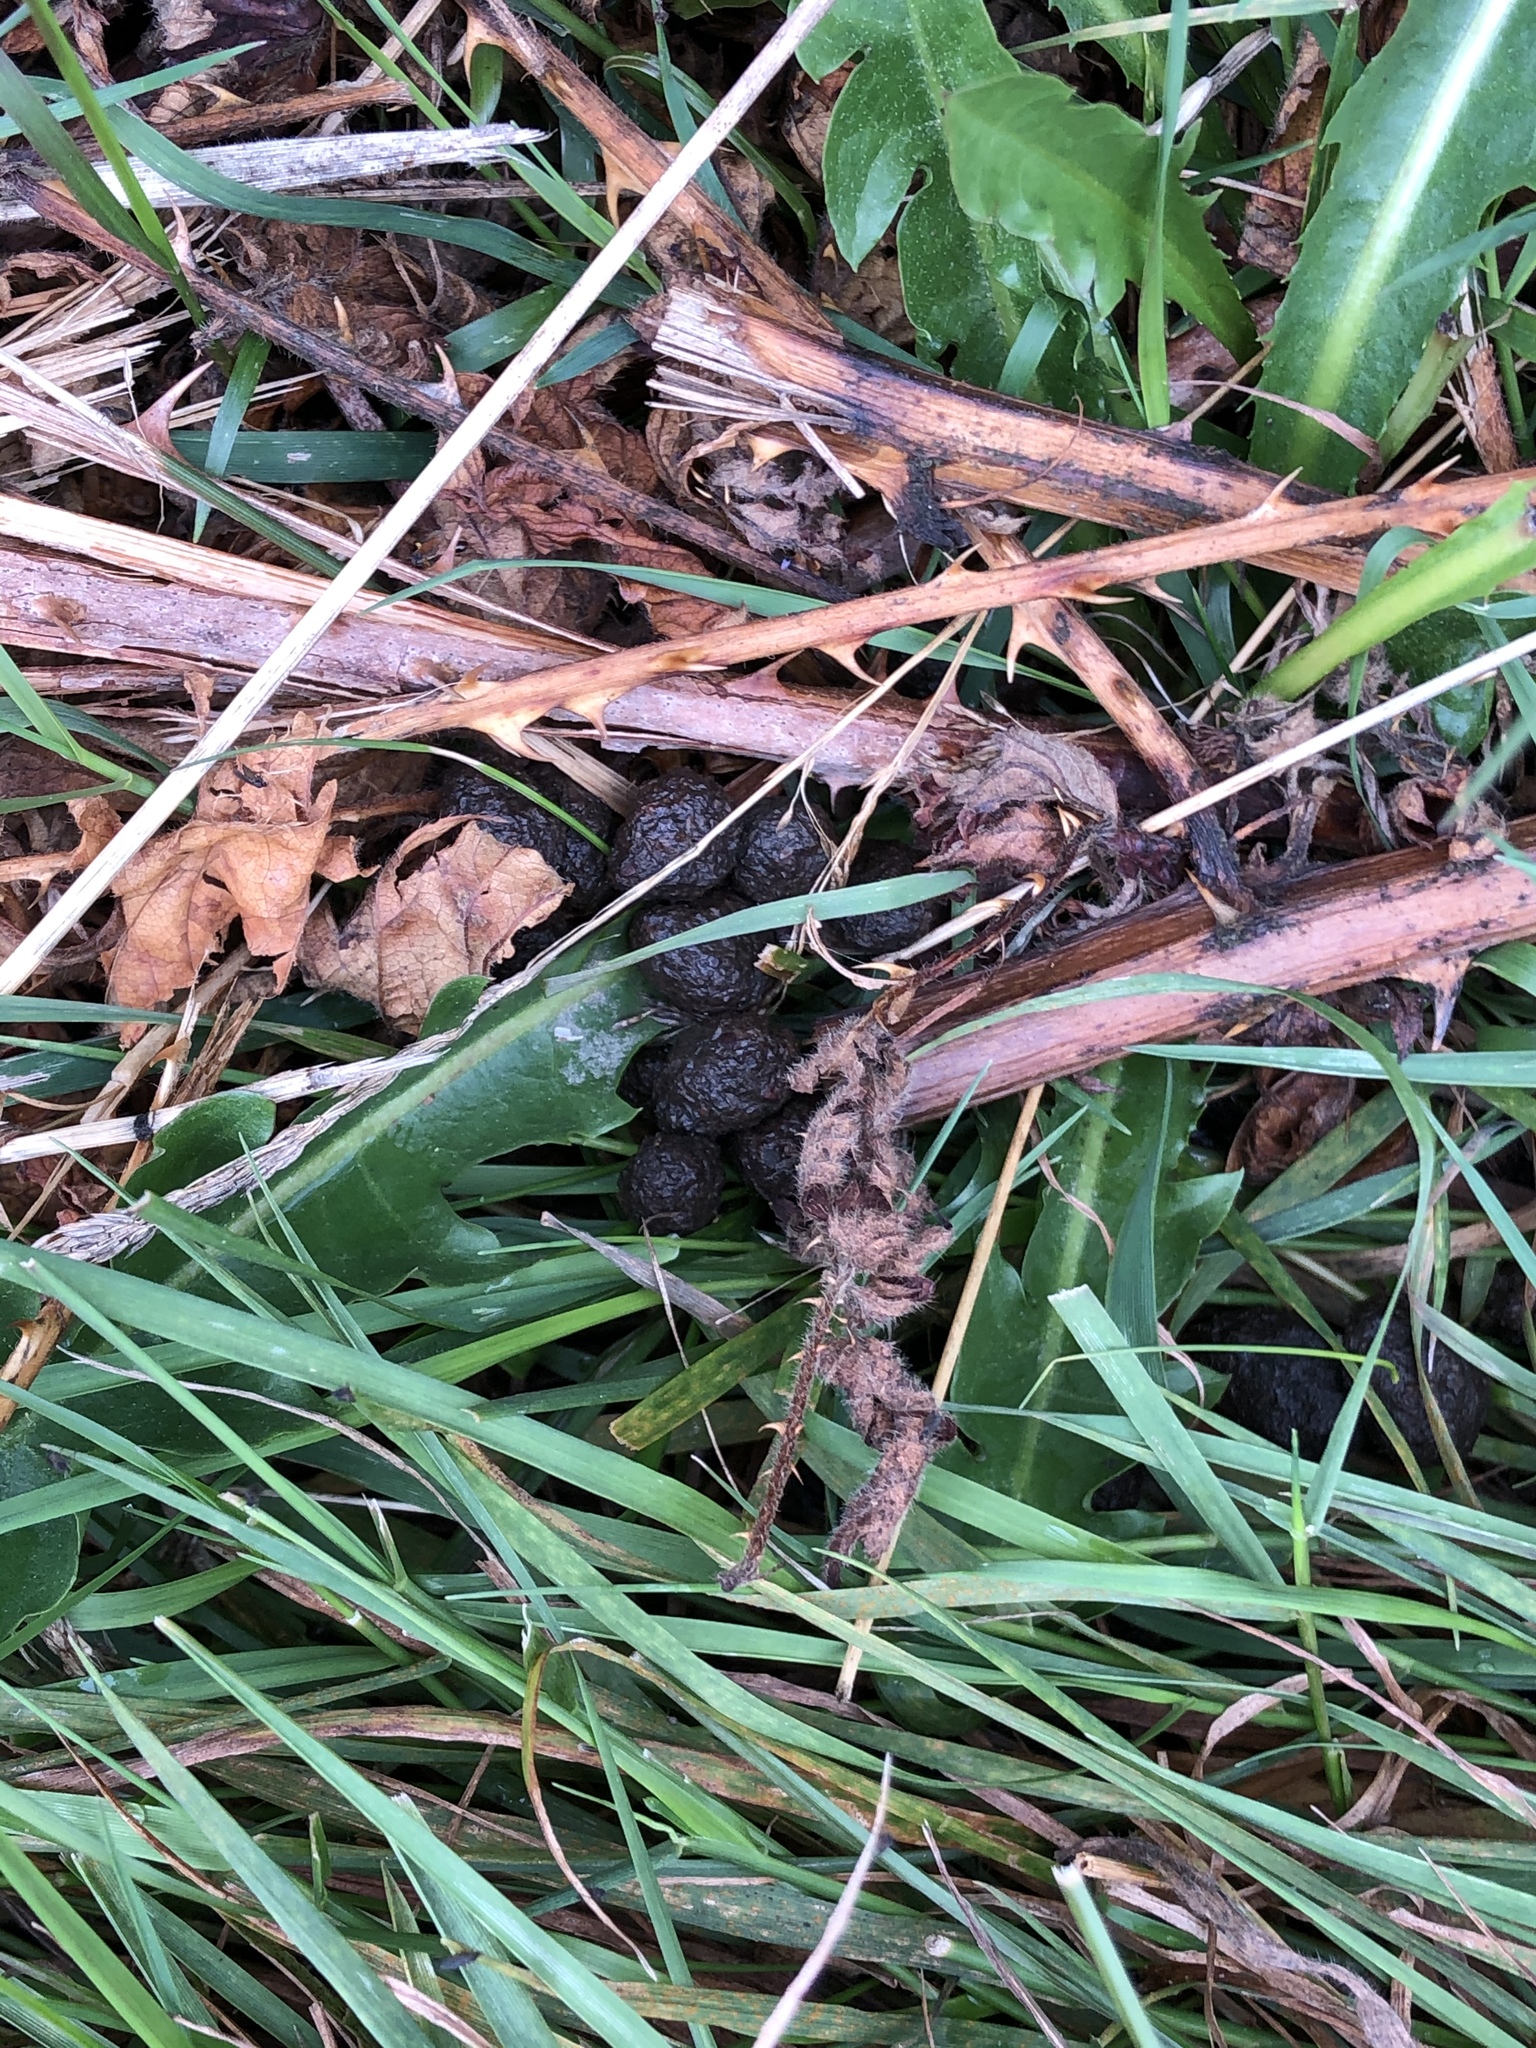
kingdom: Animalia
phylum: Chordata
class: Mammalia
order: Artiodactyla
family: Cervidae
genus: Odocoileus
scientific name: Odocoileus hemionus
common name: Mule deer
